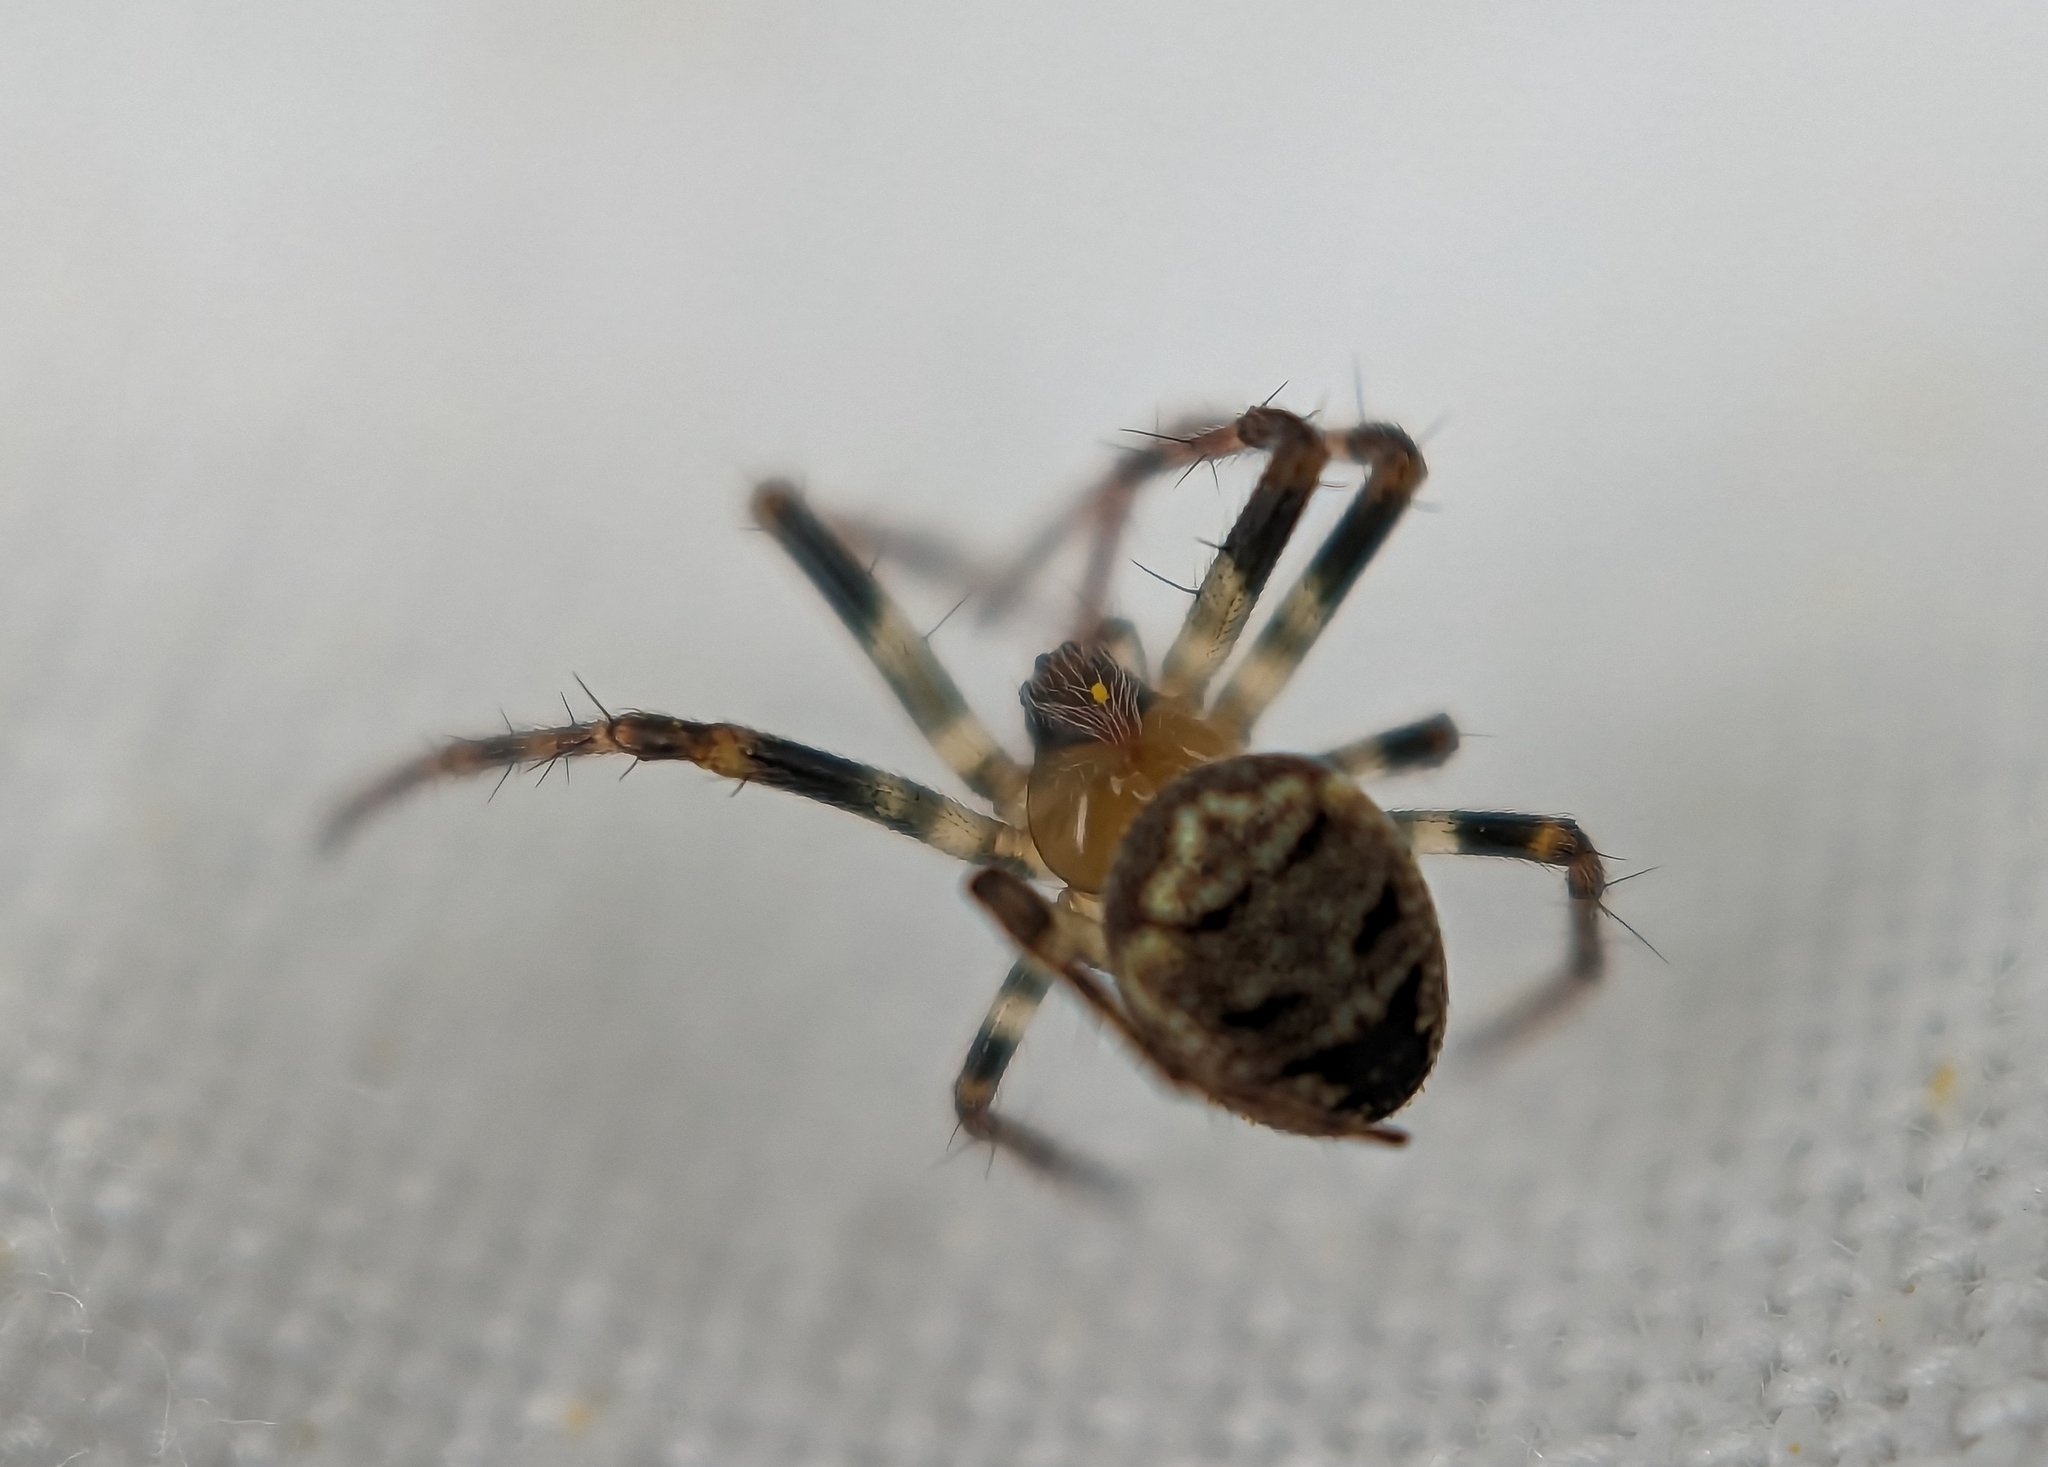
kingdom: Animalia
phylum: Arthropoda
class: Arachnida
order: Araneae
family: Araneidae
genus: Zilla
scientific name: Zilla diodia
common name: Zilla diodia
